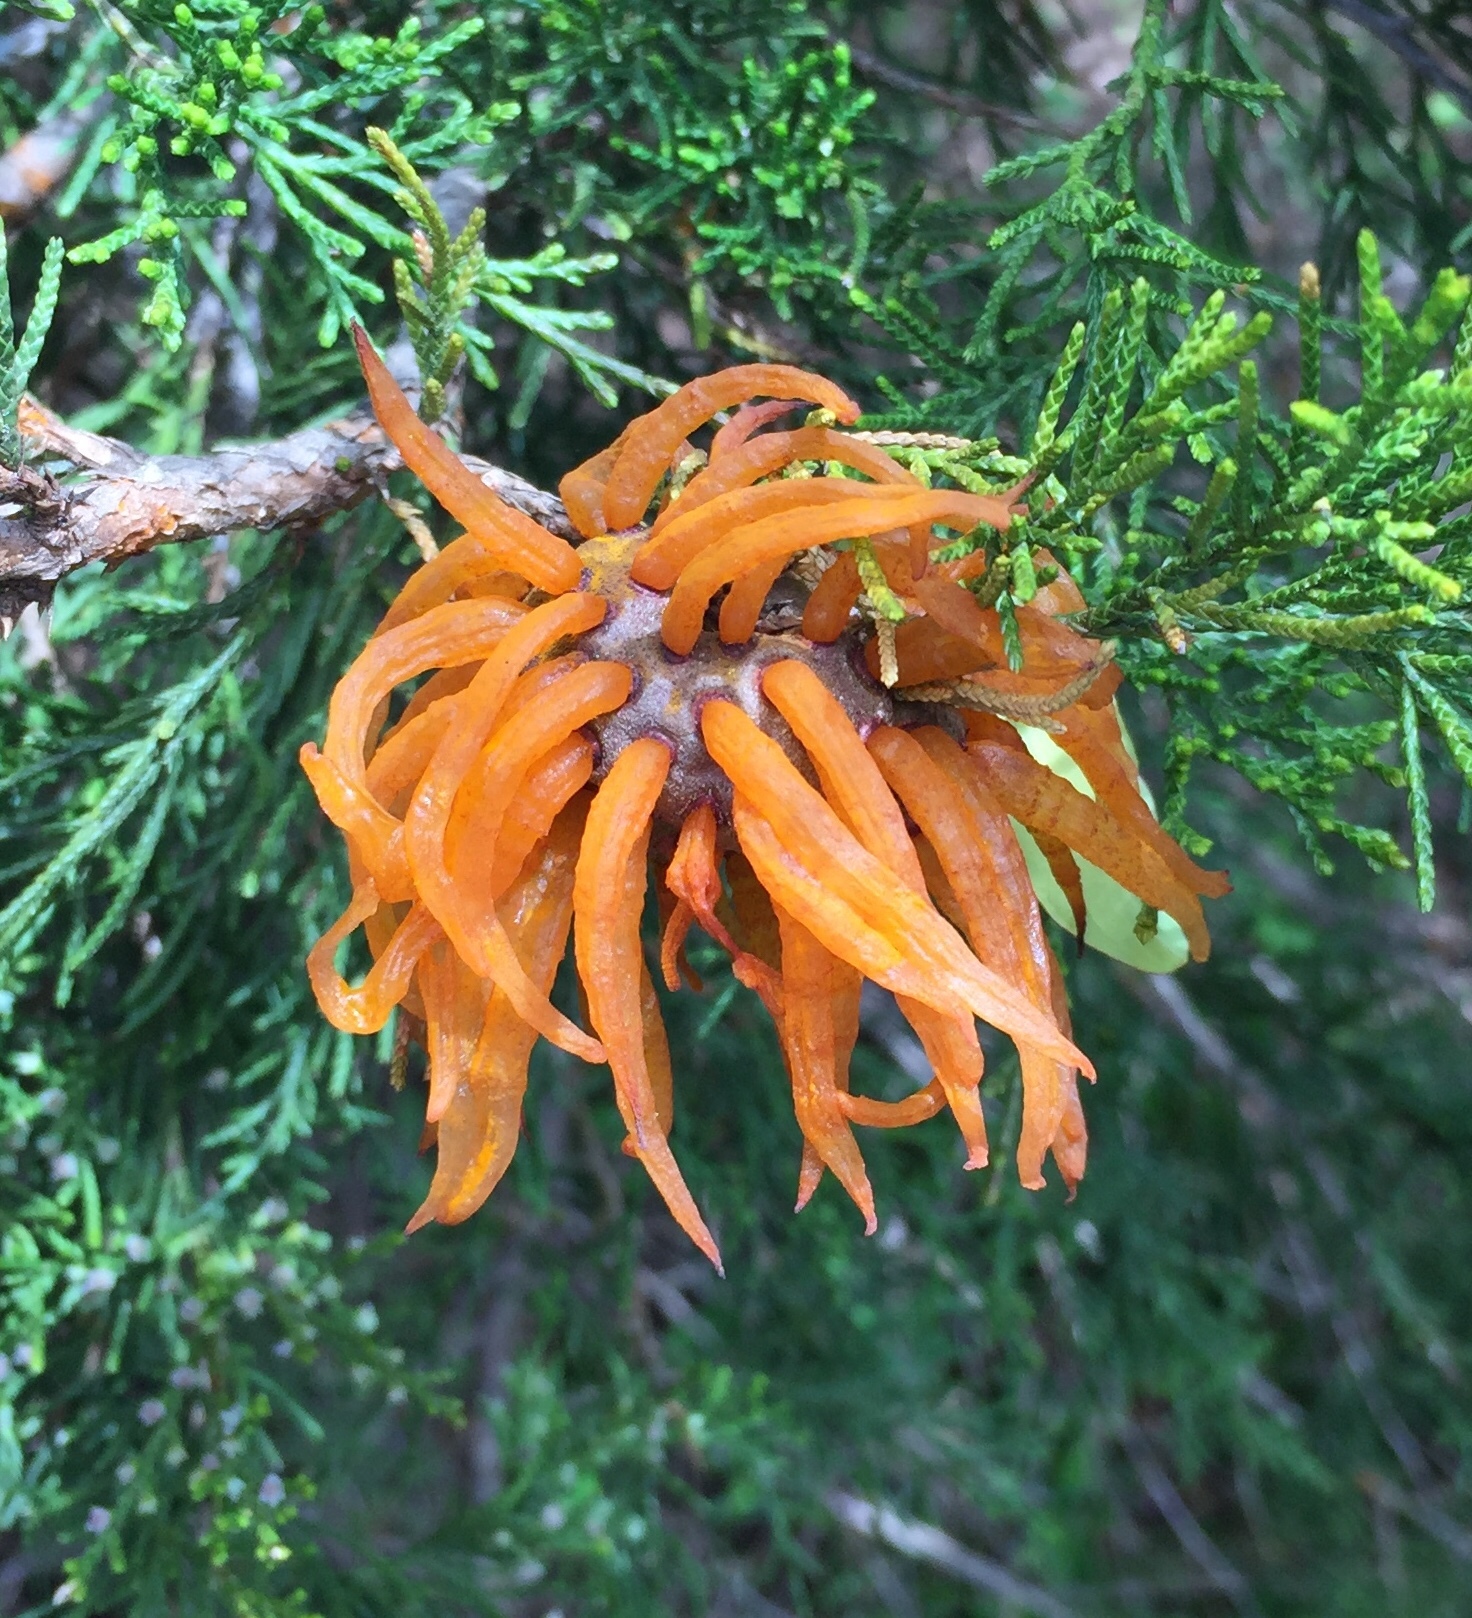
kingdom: Fungi
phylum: Basidiomycota
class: Pucciniomycetes
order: Pucciniales
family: Gymnosporangiaceae
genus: Gymnosporangium
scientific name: Gymnosporangium juniperi-virginianae
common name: Juniper-apple rust
